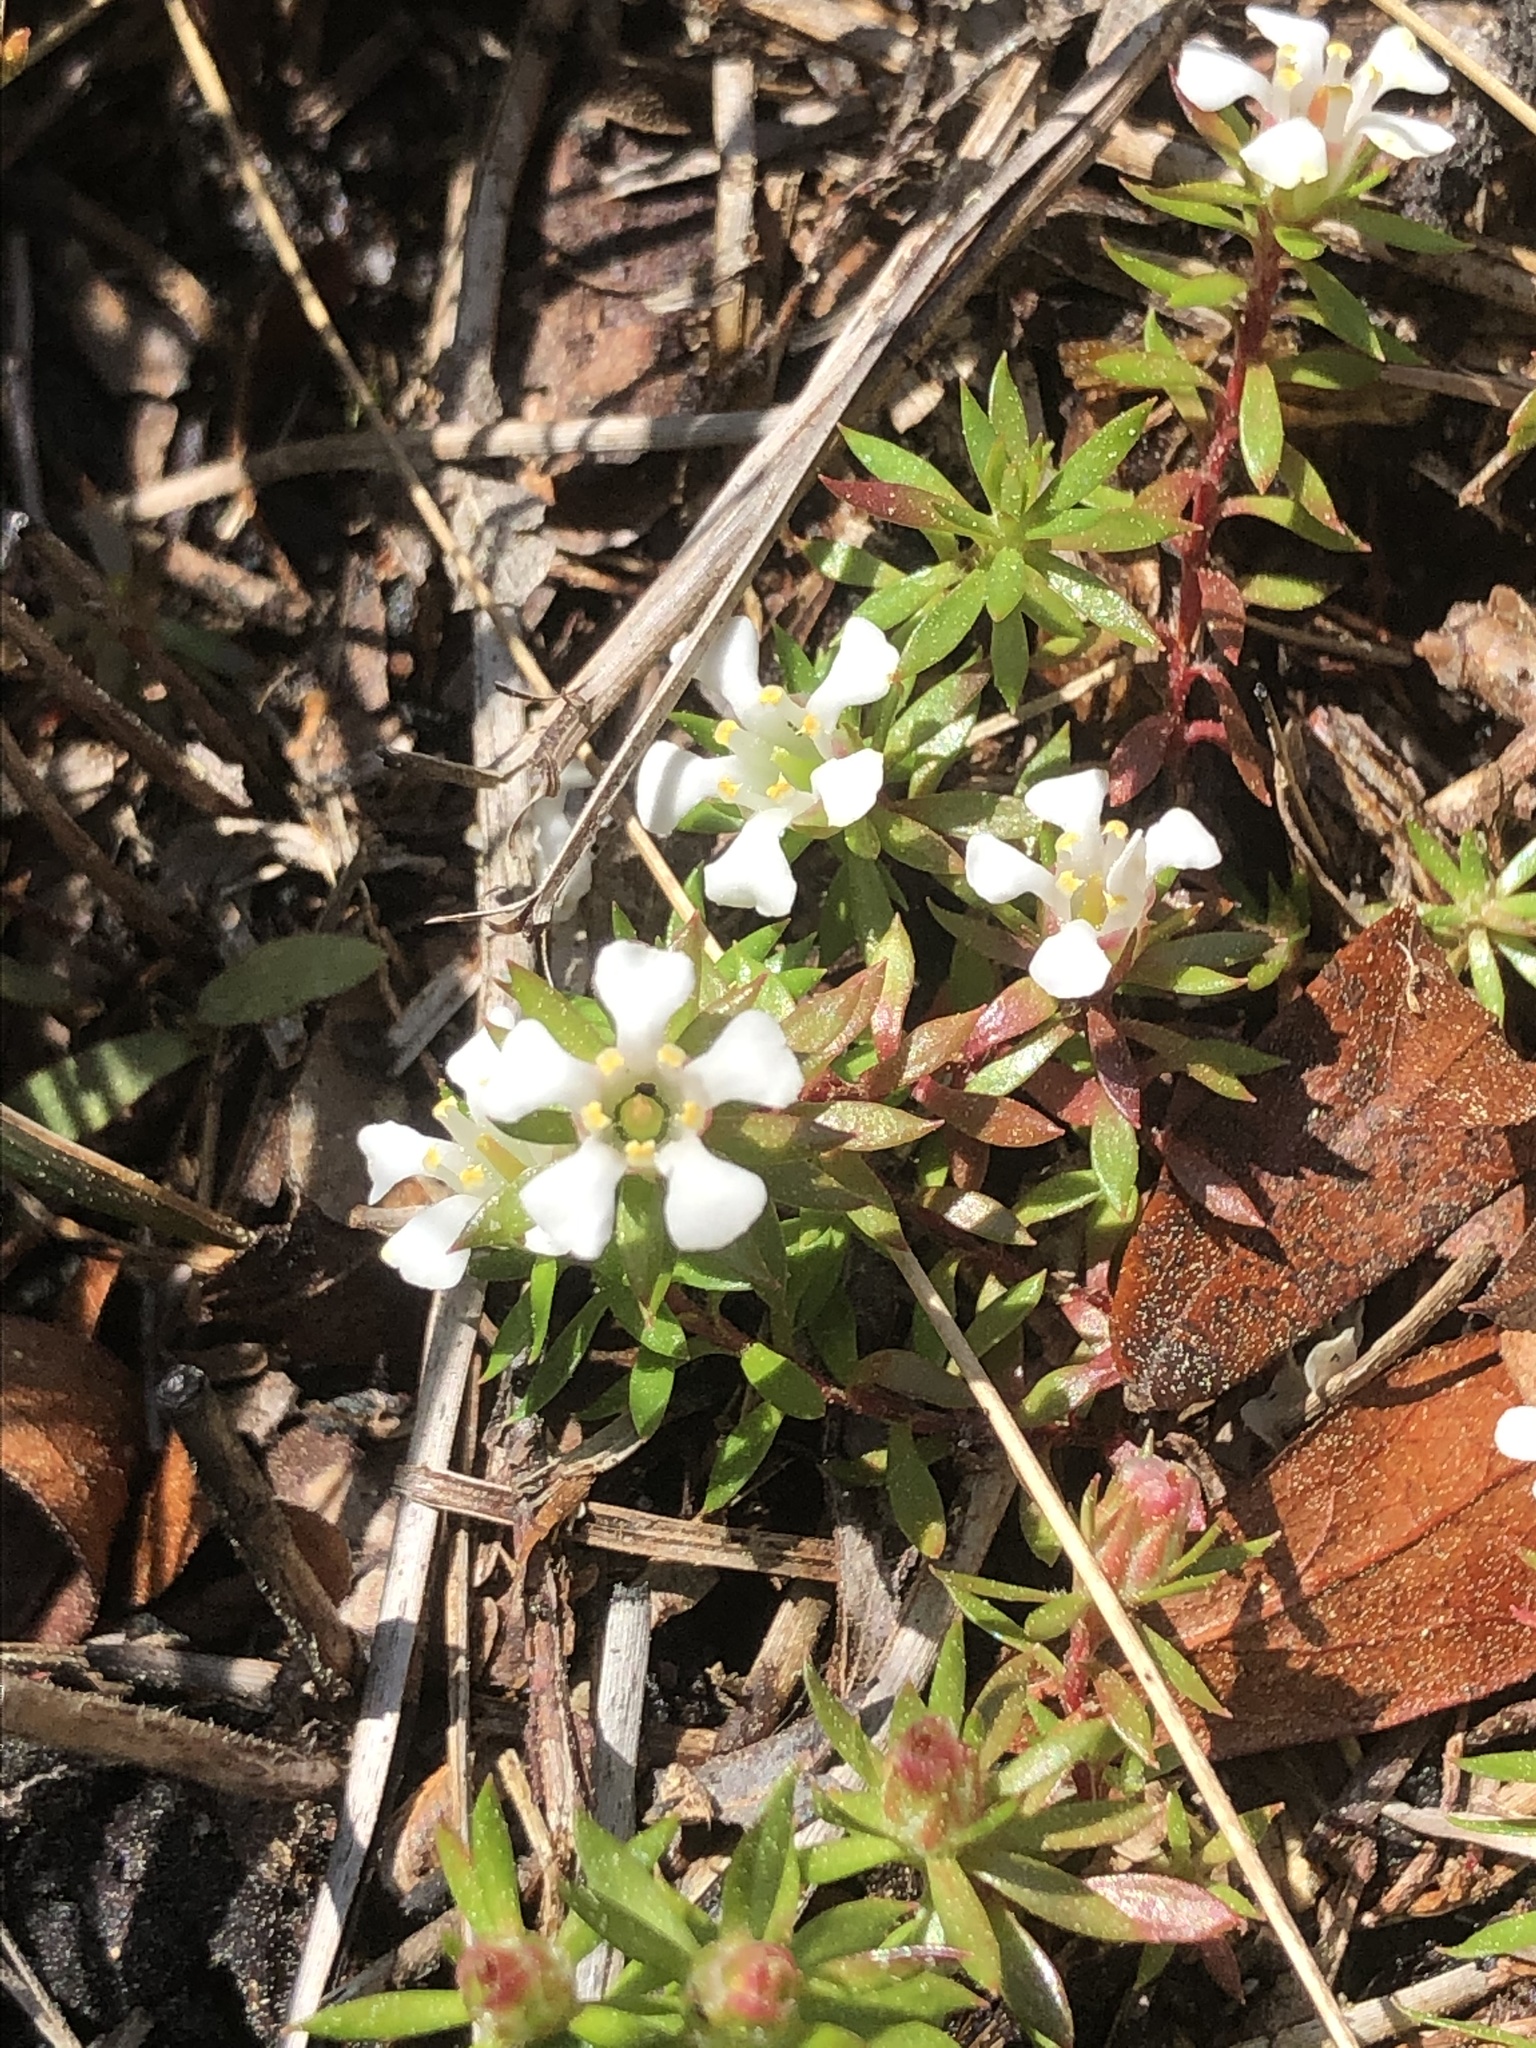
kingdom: Plantae
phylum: Tracheophyta
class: Magnoliopsida
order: Ericales
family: Diapensiaceae
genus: Pyxidanthera
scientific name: Pyxidanthera barbulata
